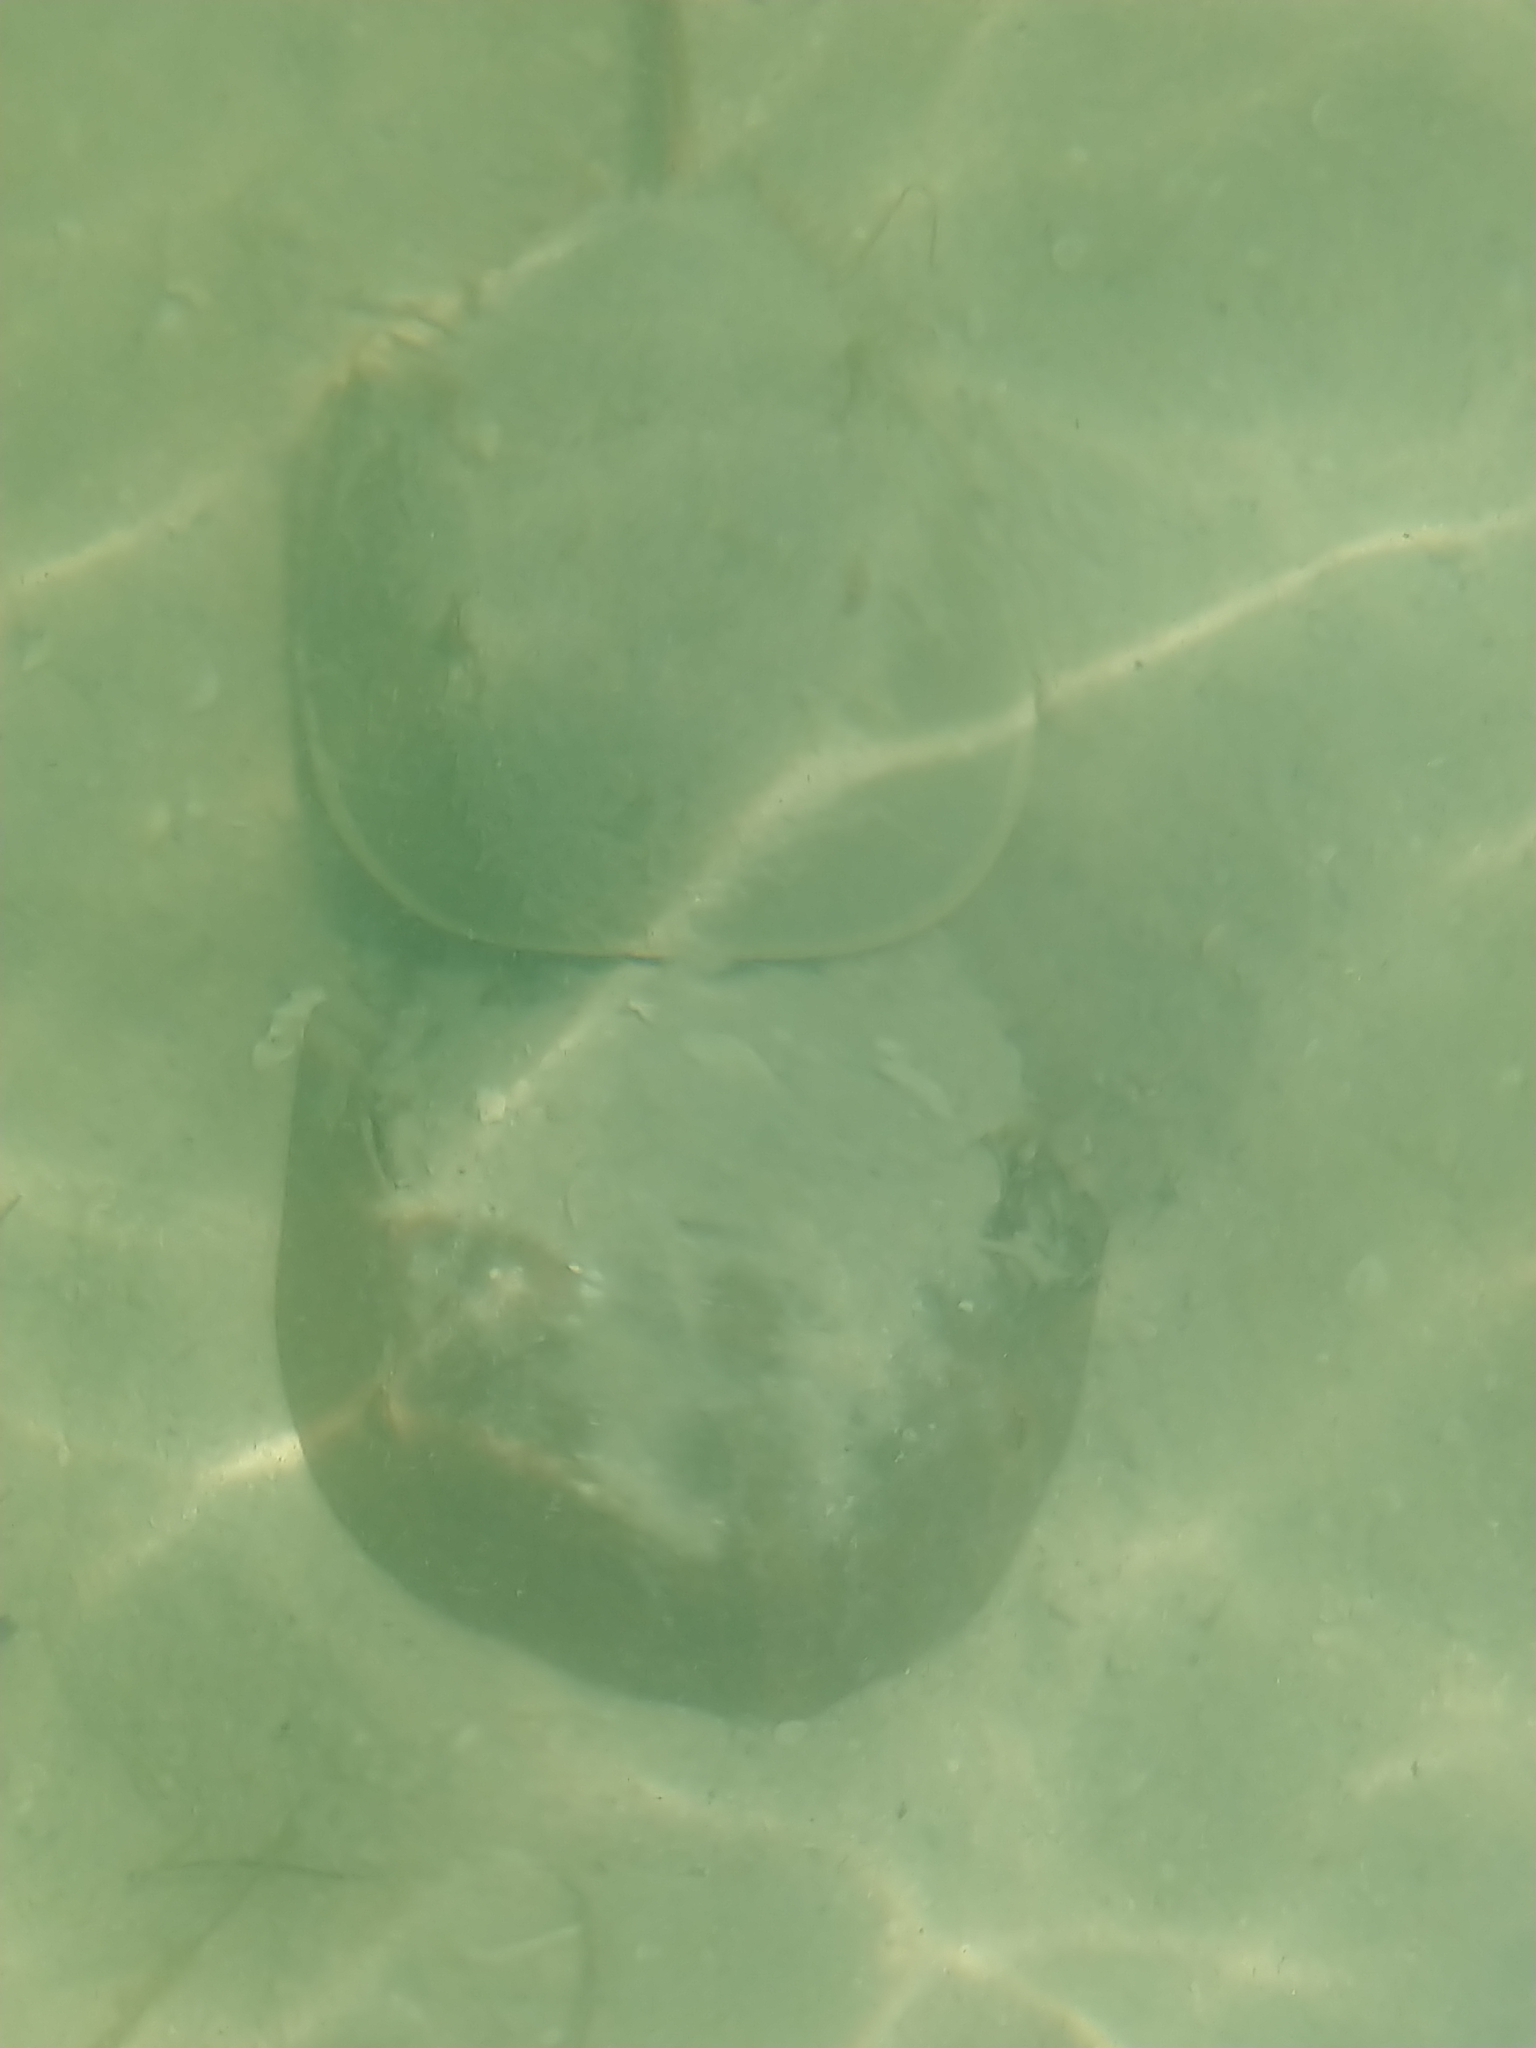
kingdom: Animalia
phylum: Arthropoda
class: Merostomata
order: Xiphosurida
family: Limulidae
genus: Limulus
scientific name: Limulus polyphemus
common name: Horseshoe crab
